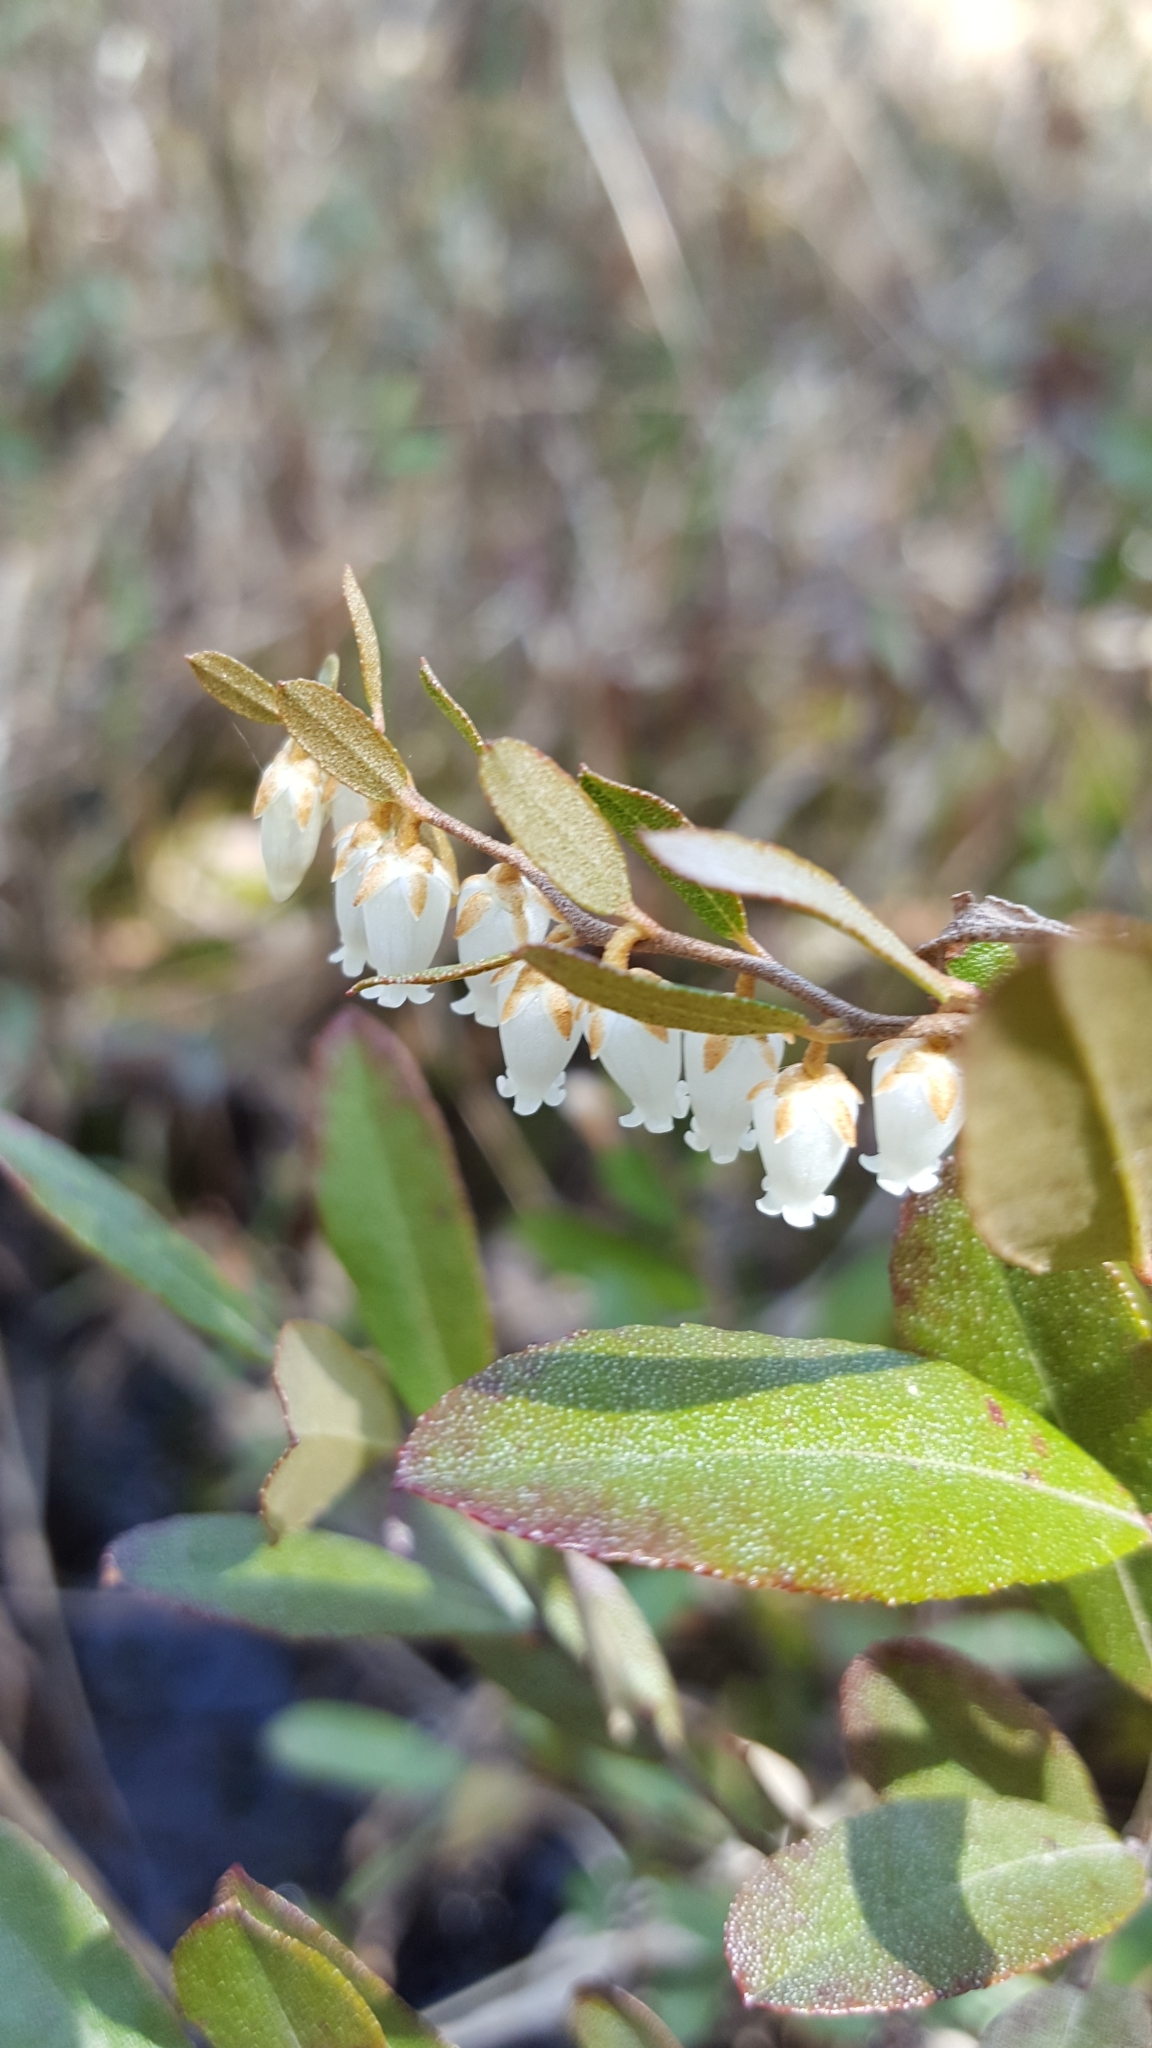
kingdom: Plantae
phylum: Tracheophyta
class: Magnoliopsida
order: Ericales
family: Ericaceae
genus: Chamaedaphne
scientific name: Chamaedaphne calyculata
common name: Leatherleaf
